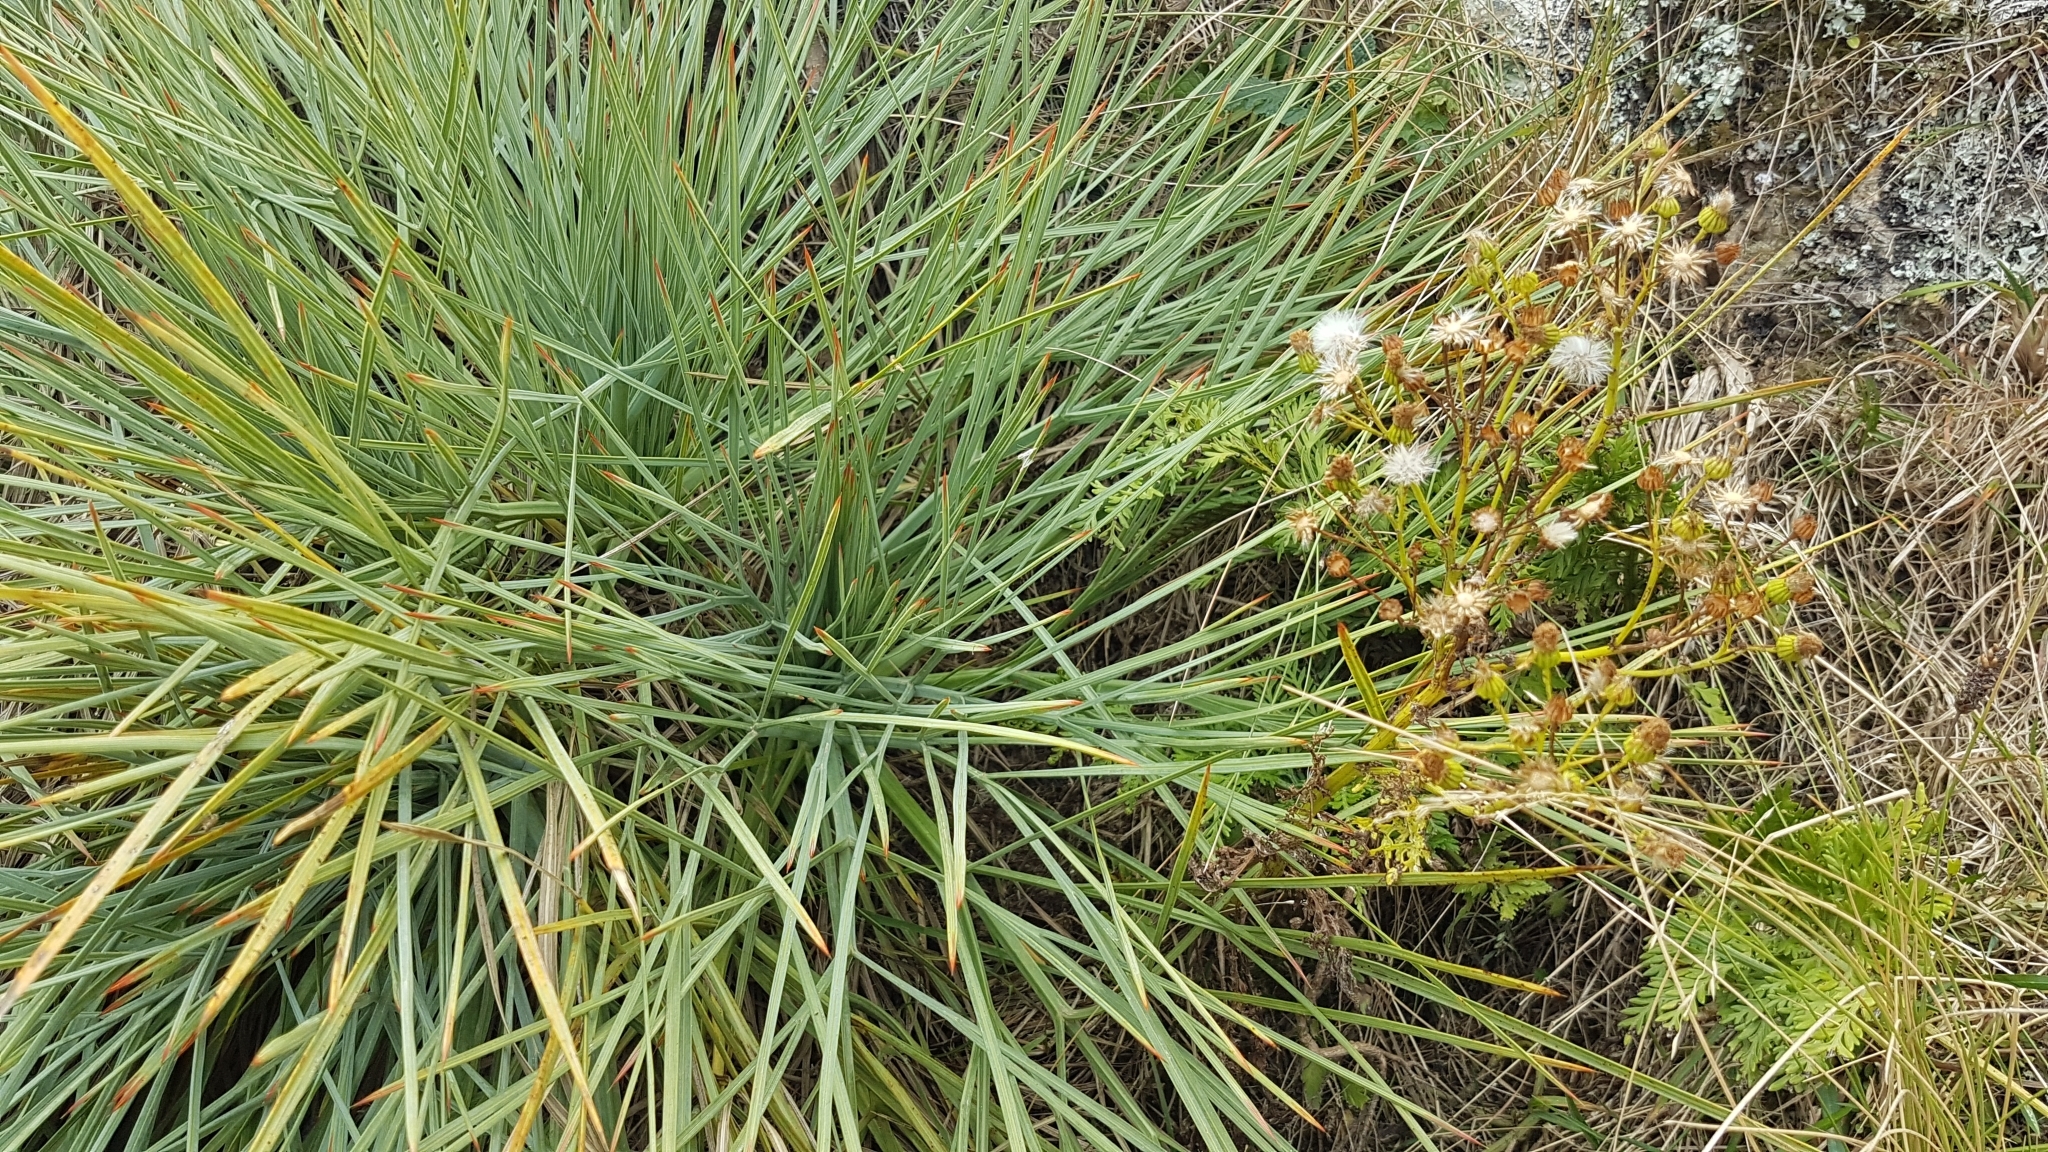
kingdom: Plantae
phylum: Tracheophyta
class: Magnoliopsida
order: Apiales
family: Apiaceae
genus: Aciphylla
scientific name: Aciphylla squarrosa
